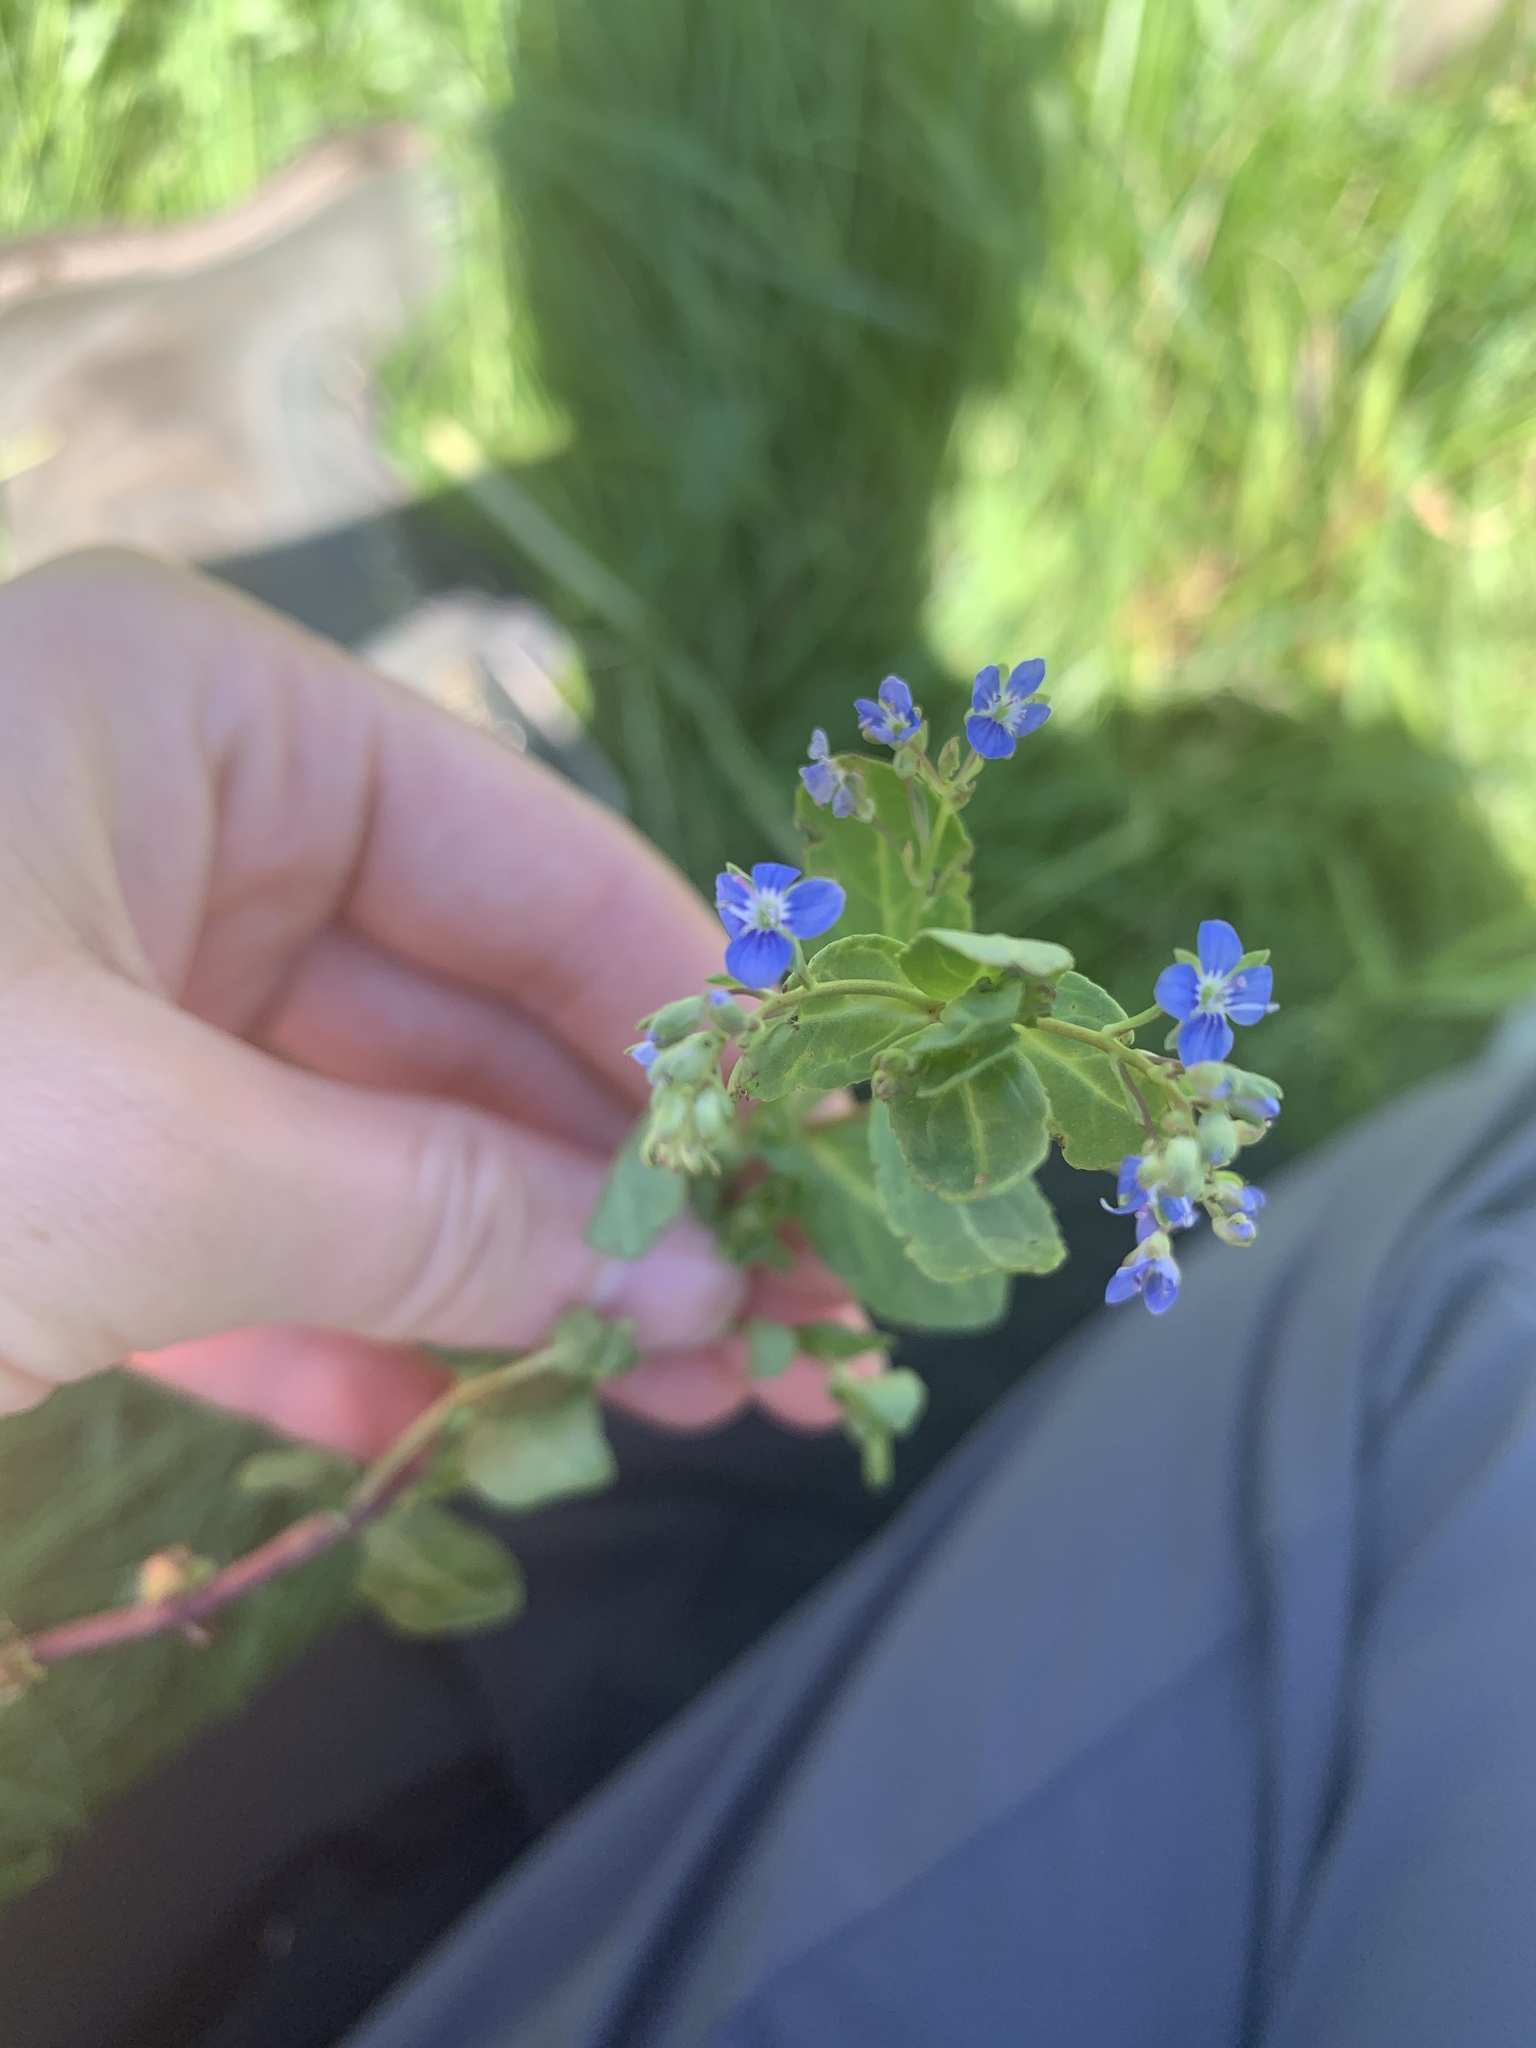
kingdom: Plantae
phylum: Tracheophyta
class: Magnoliopsida
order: Lamiales
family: Plantaginaceae
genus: Veronica
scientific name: Veronica beccabunga
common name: Brooklime
